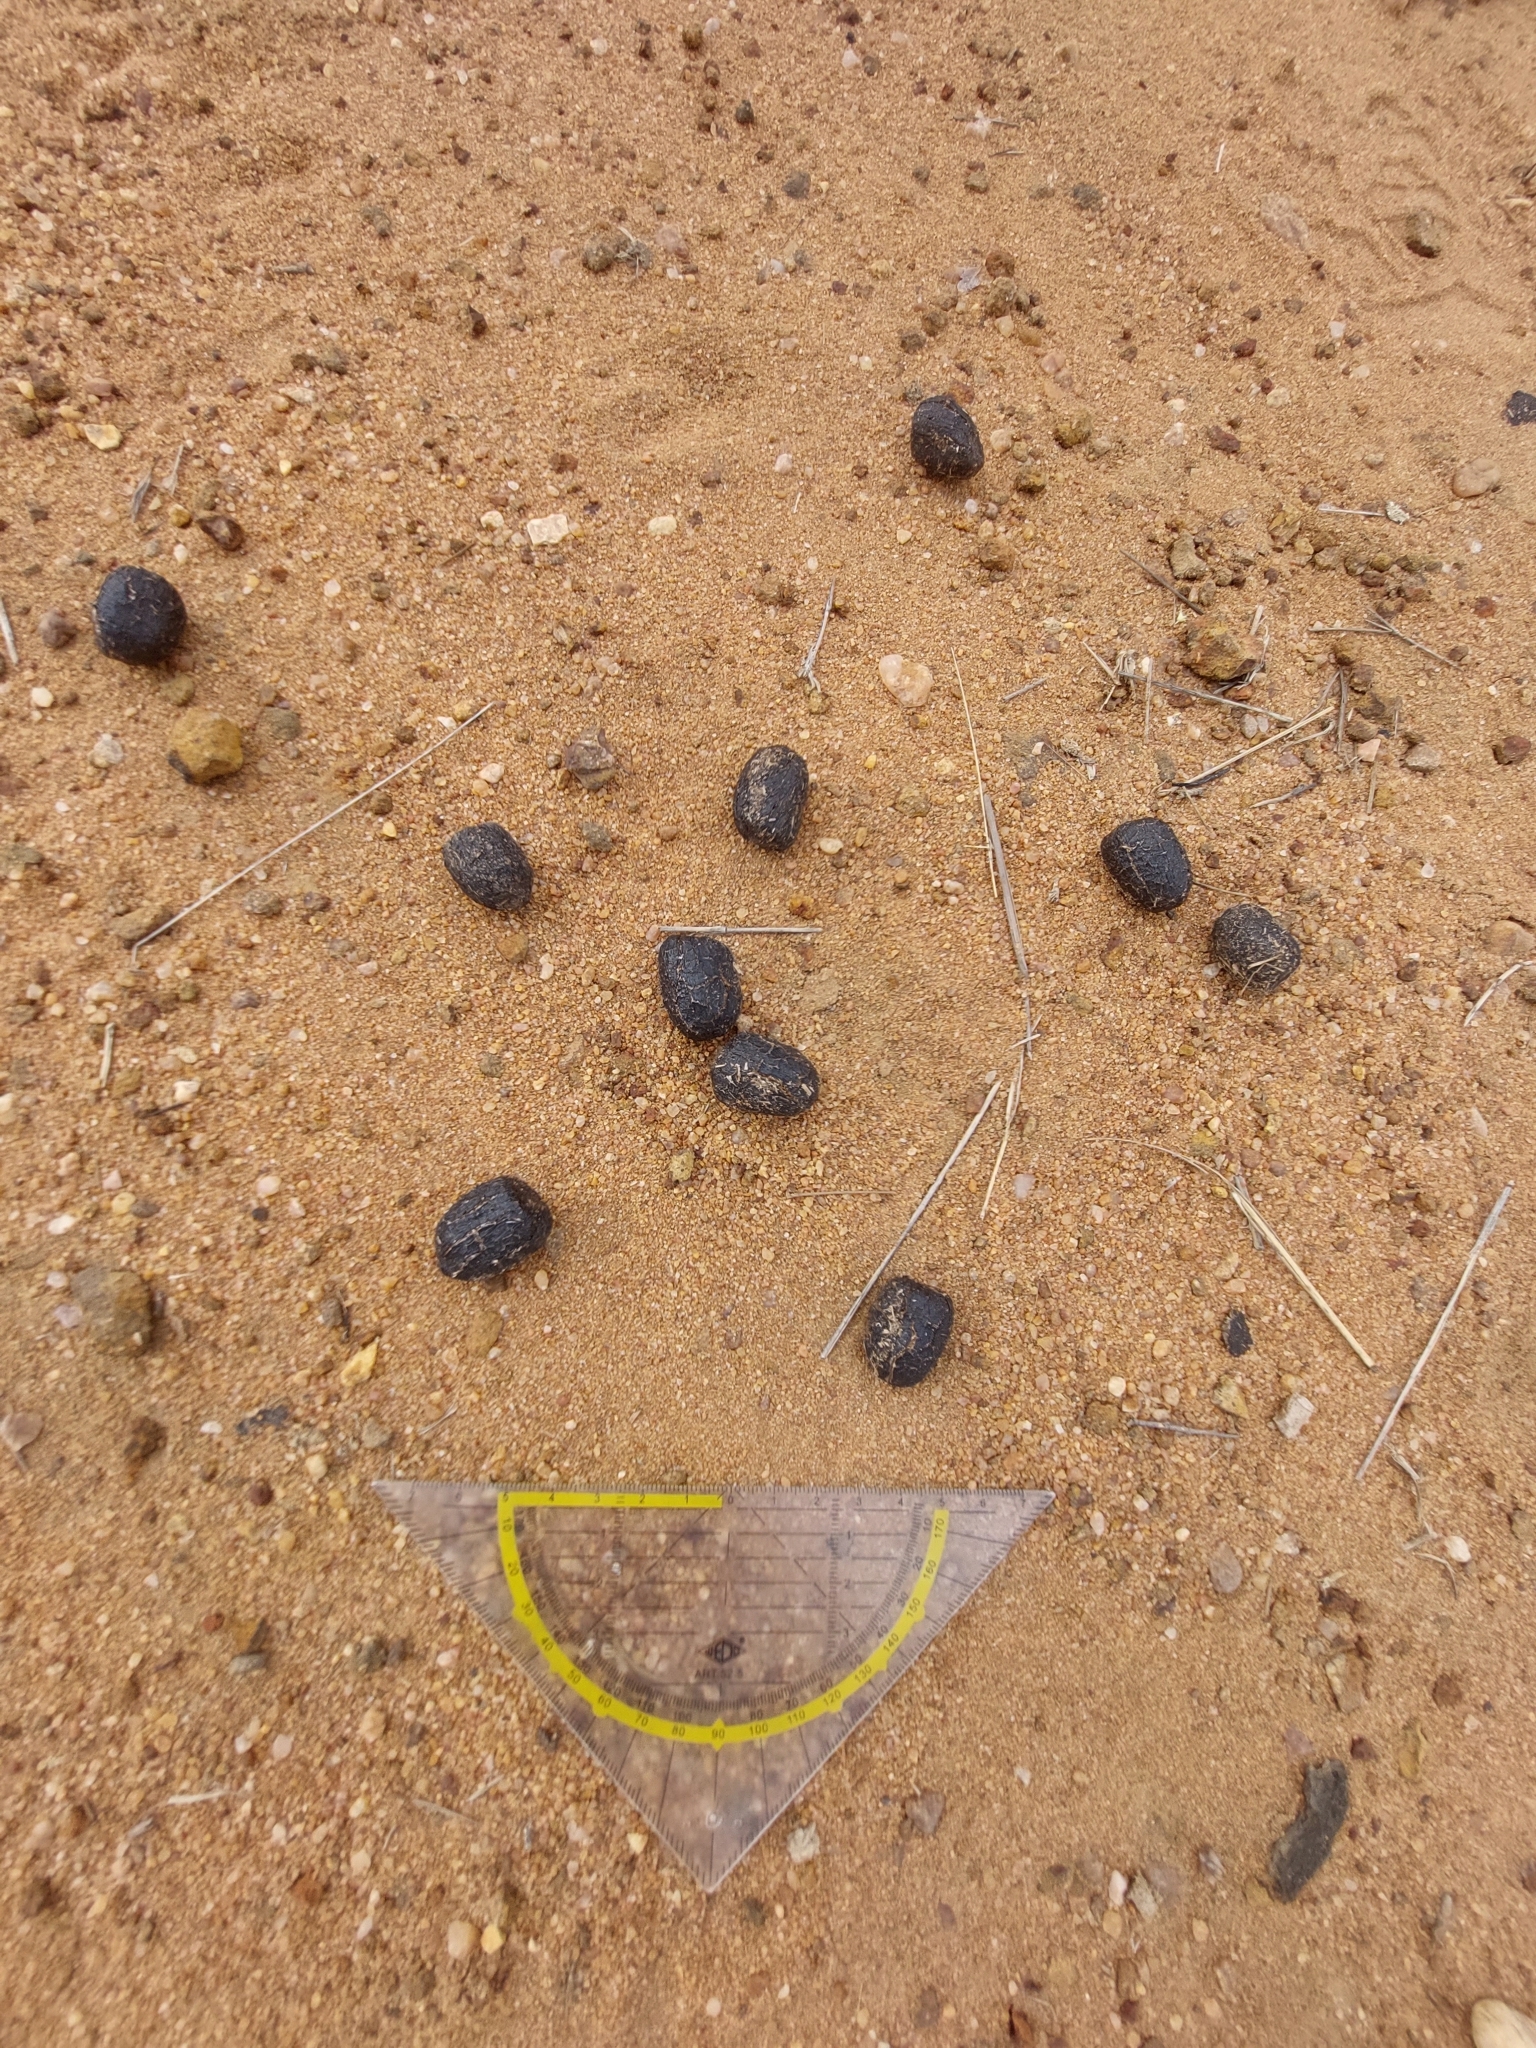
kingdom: Animalia
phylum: Chordata
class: Mammalia
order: Artiodactyla
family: Bovidae
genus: Taurotragus
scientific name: Taurotragus oryx
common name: Common eland
